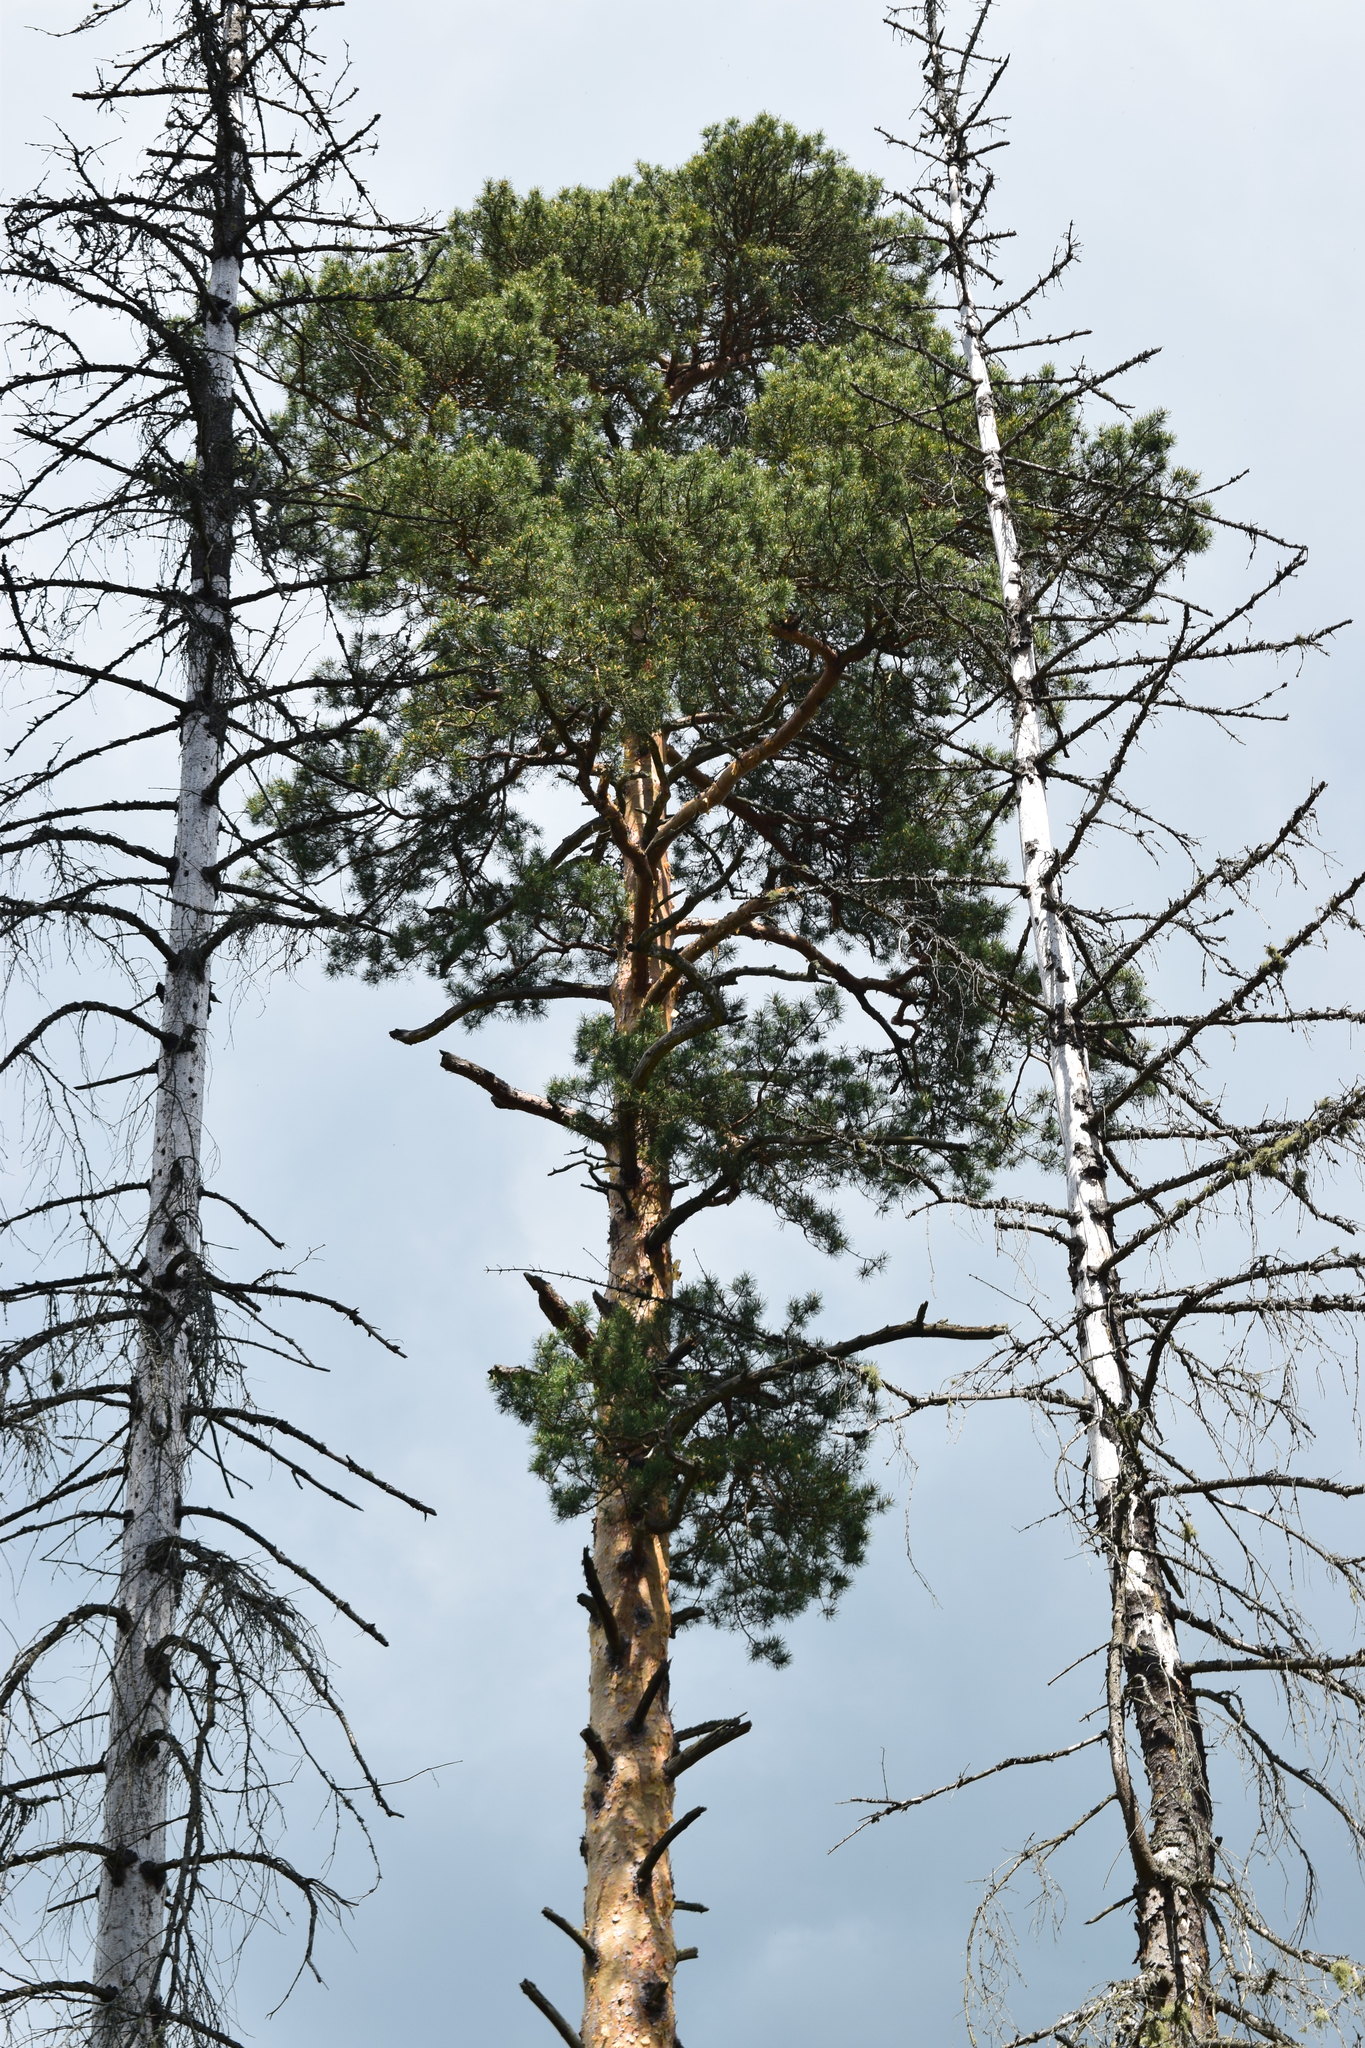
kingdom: Plantae
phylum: Tracheophyta
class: Pinopsida
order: Pinales
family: Pinaceae
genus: Pinus
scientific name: Pinus sylvestris
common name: Scots pine
